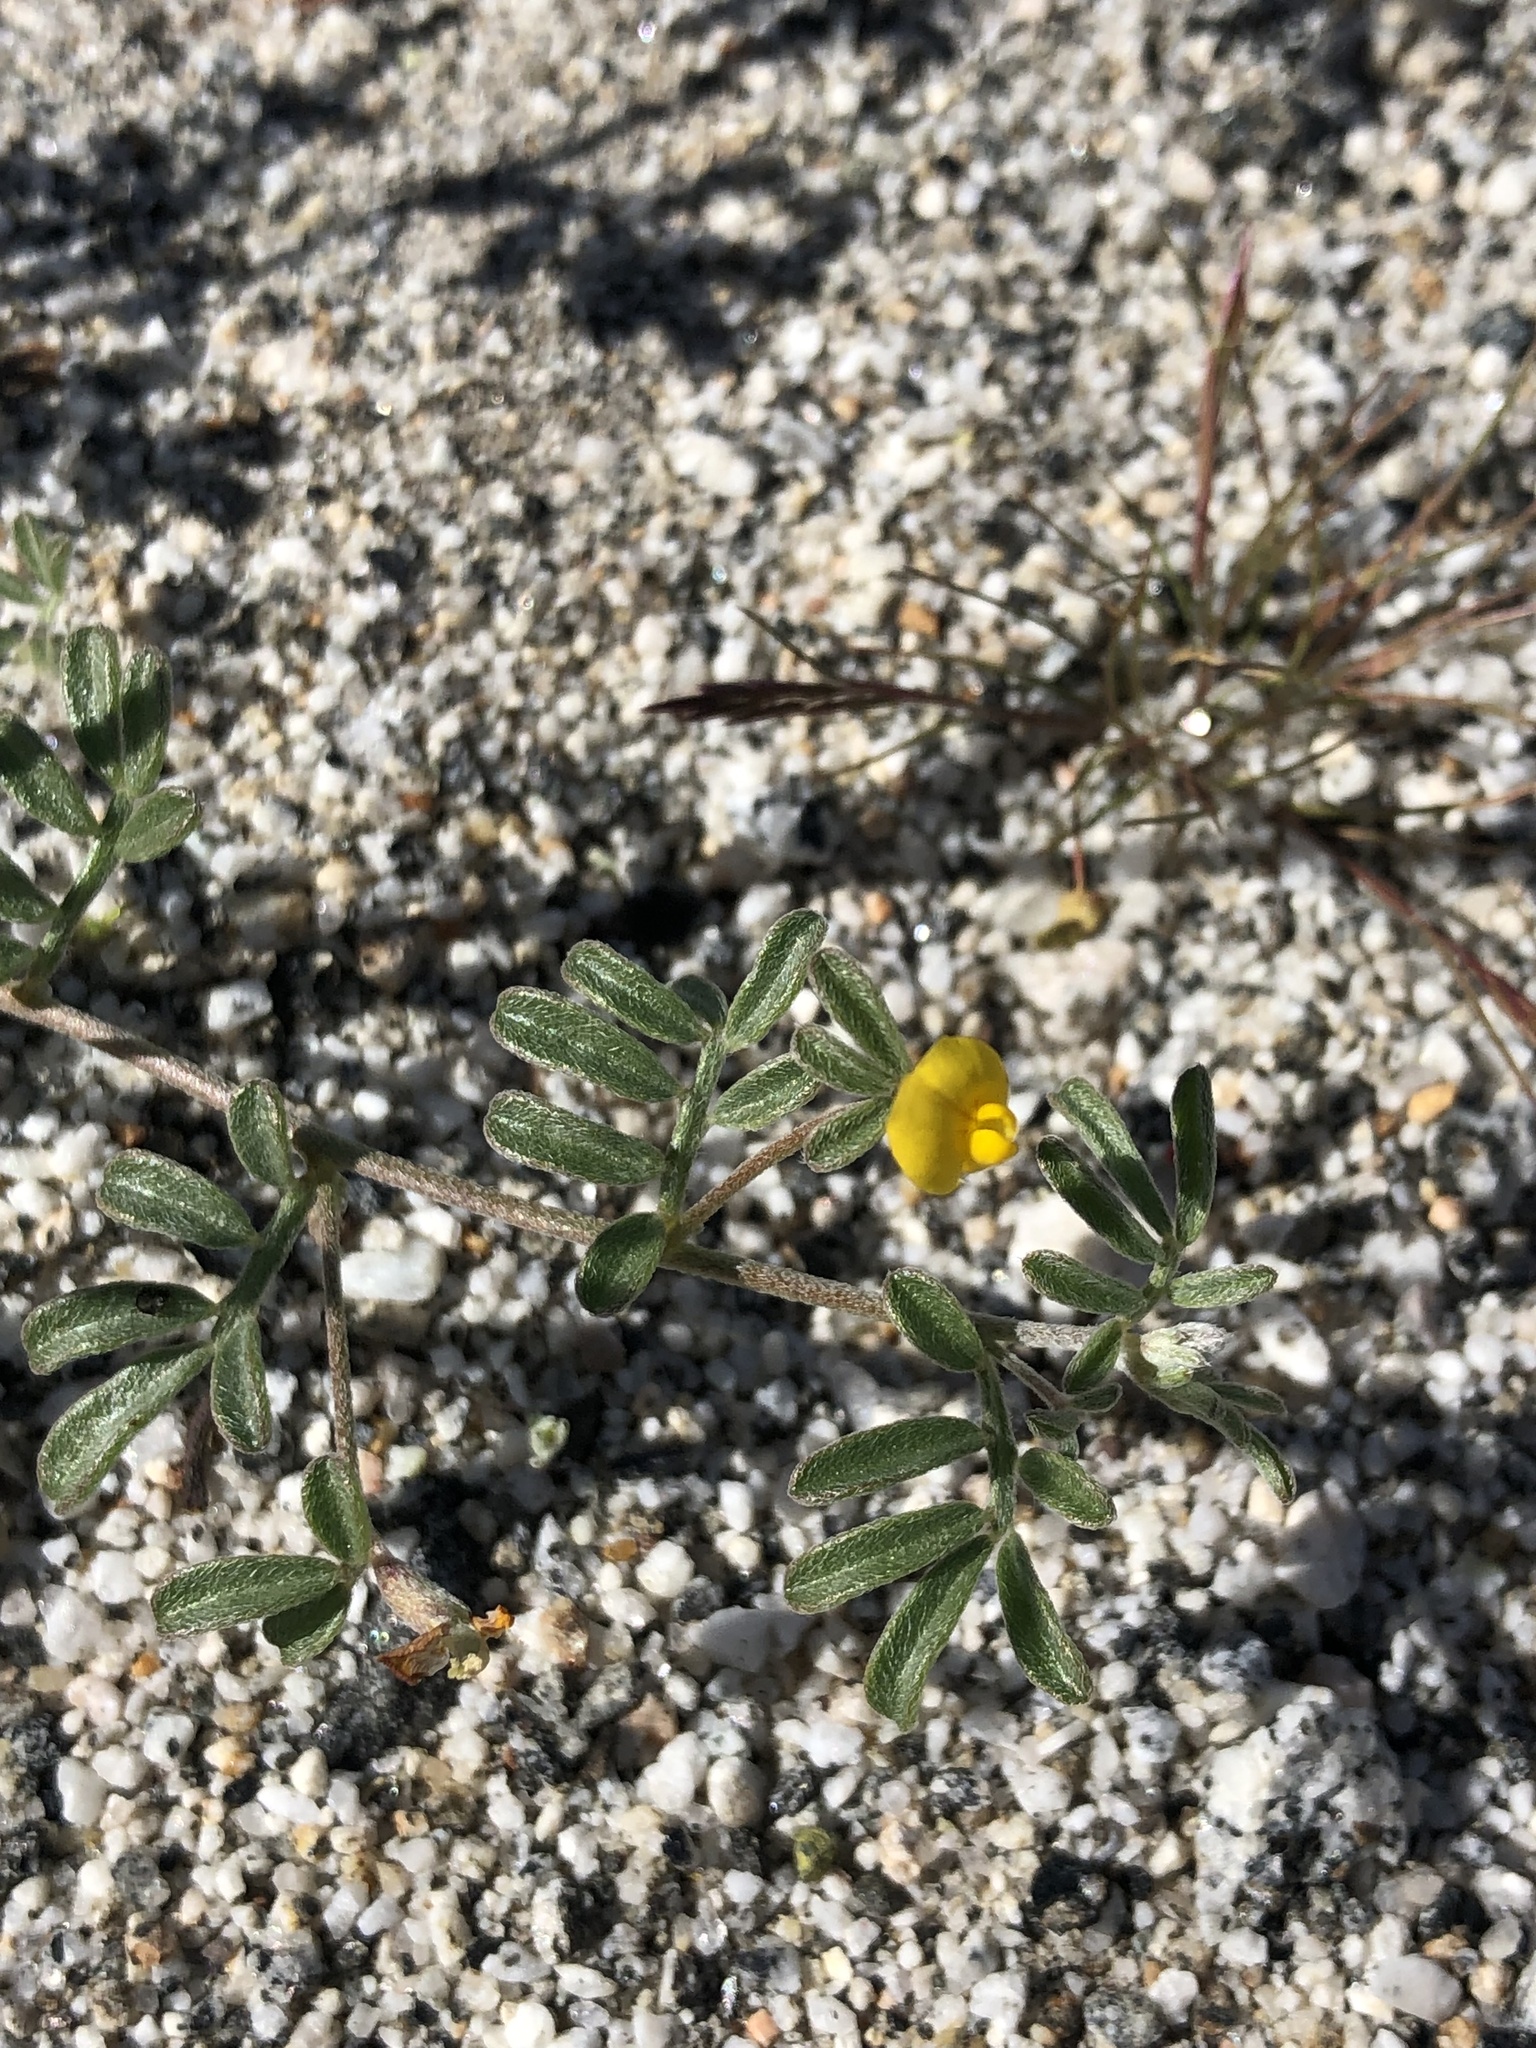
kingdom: Plantae
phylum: Tracheophyta
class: Magnoliopsida
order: Fabales
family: Fabaceae
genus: Acmispon
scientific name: Acmispon strigosus
